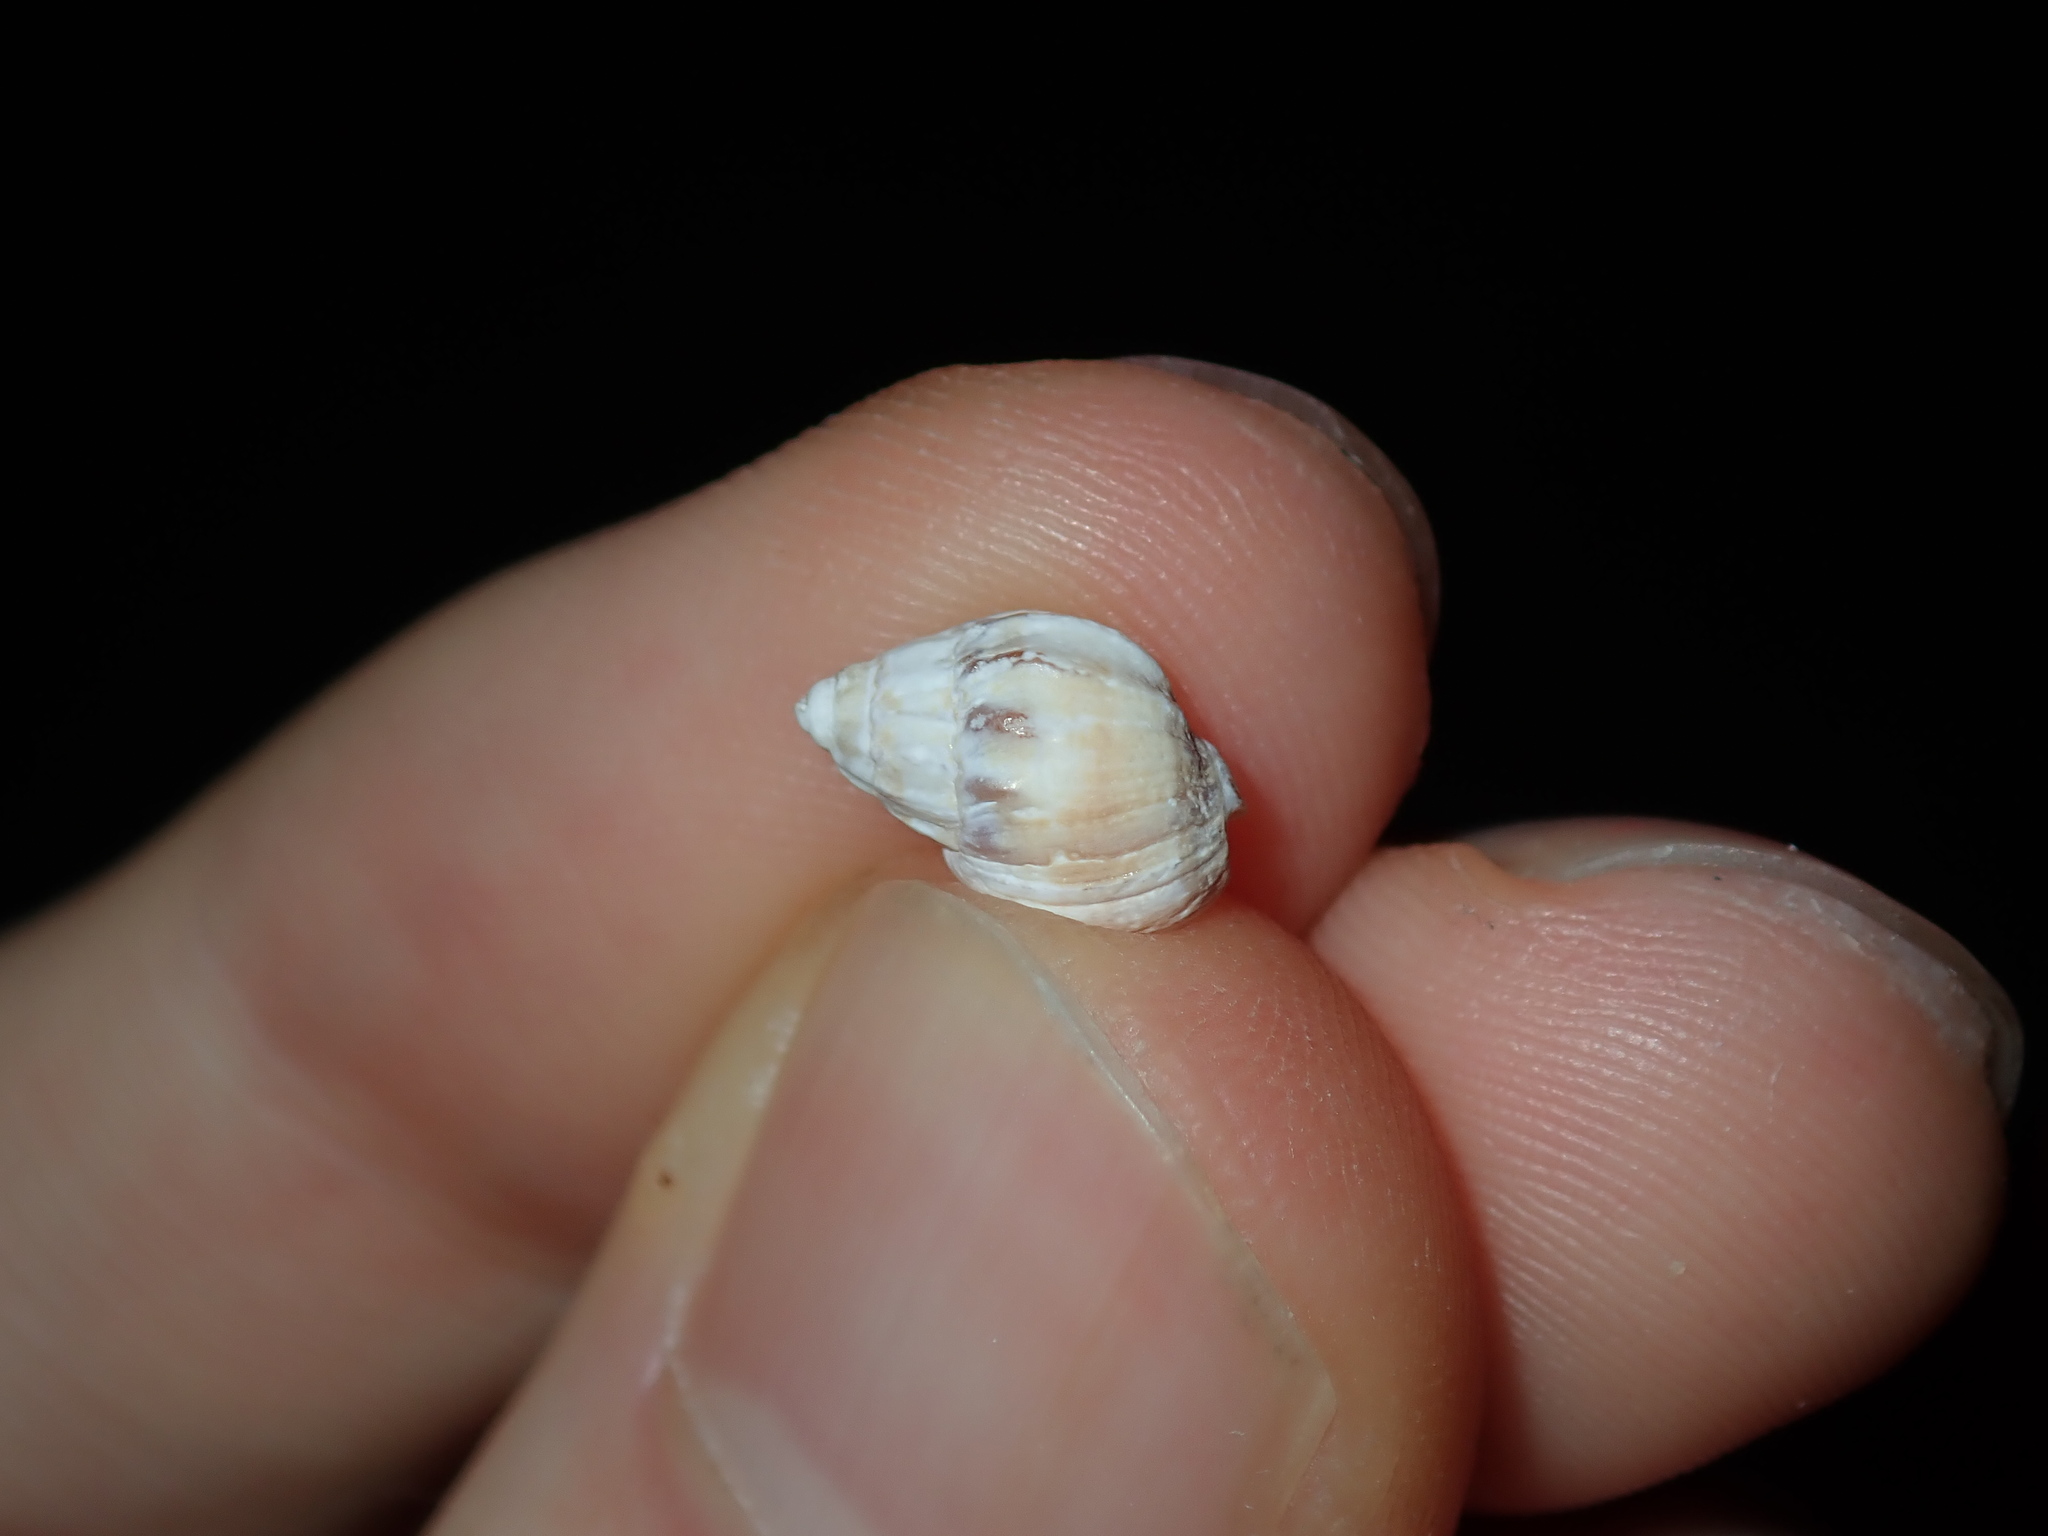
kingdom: Animalia
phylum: Mollusca
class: Gastropoda
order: Neogastropoda
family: Nassariidae
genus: Tritia
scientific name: Tritia burchardi
